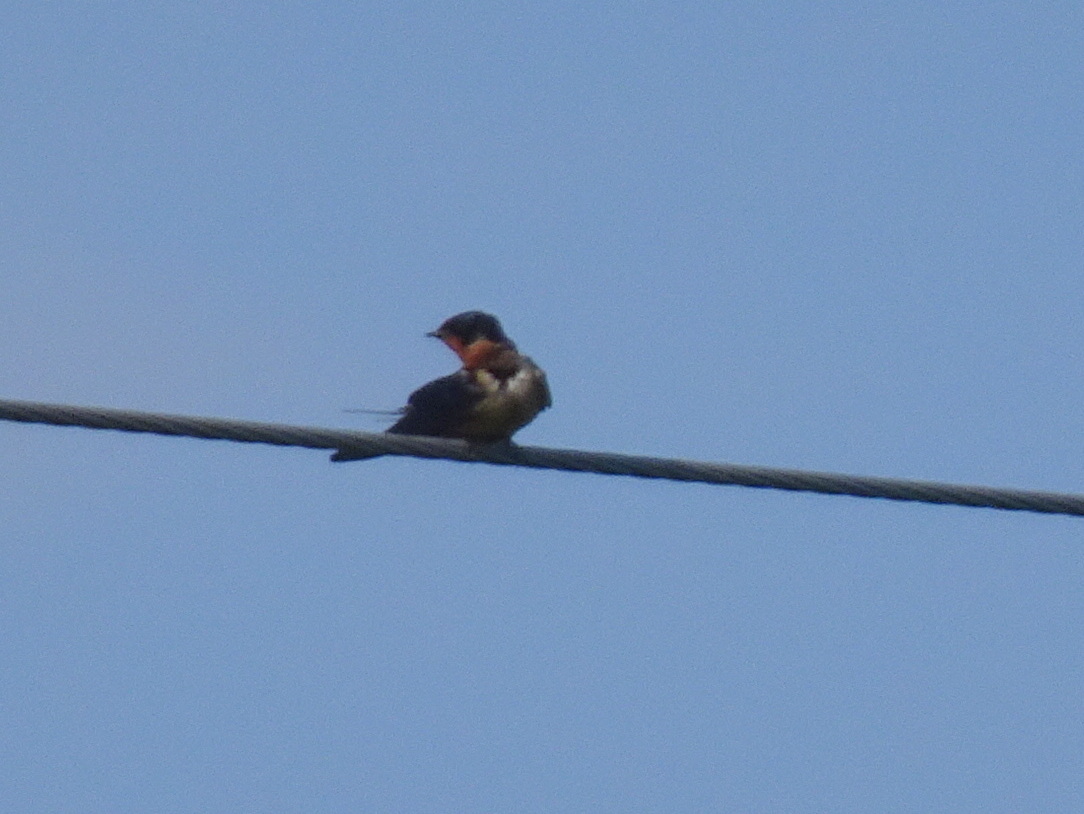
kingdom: Animalia
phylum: Chordata
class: Aves
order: Passeriformes
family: Hirundinidae
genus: Hirundo
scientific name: Hirundo rustica
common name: Barn swallow
